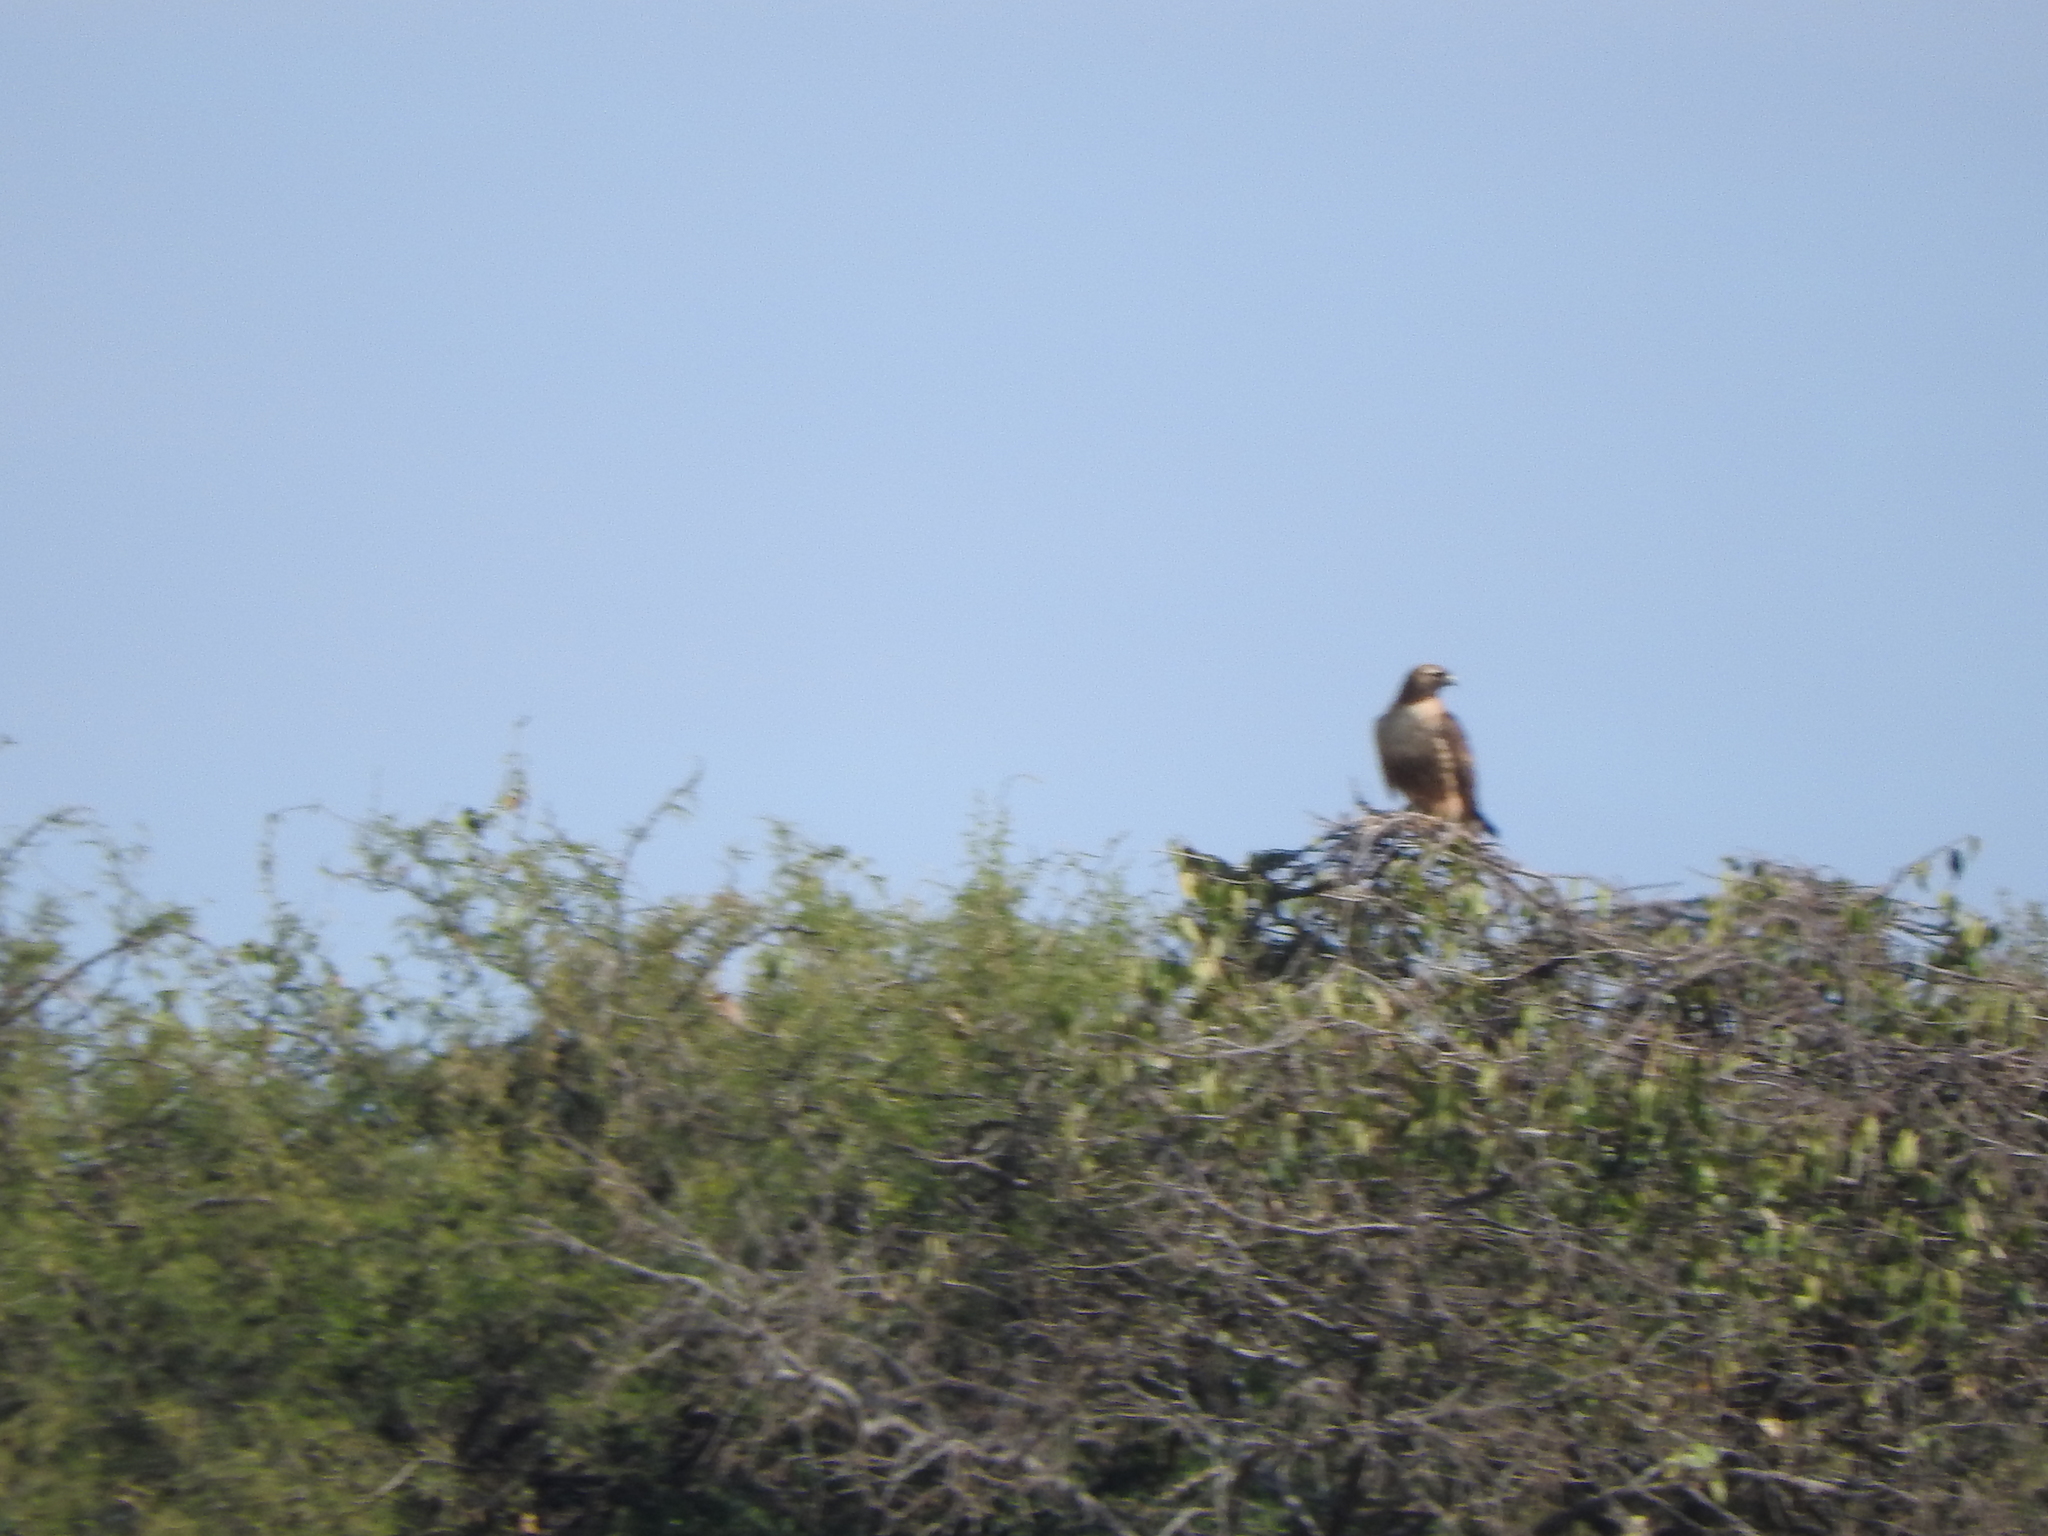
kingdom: Animalia
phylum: Chordata
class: Aves
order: Accipitriformes
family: Accipitridae
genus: Buteo
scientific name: Buteo jamaicensis
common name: Red-tailed hawk
